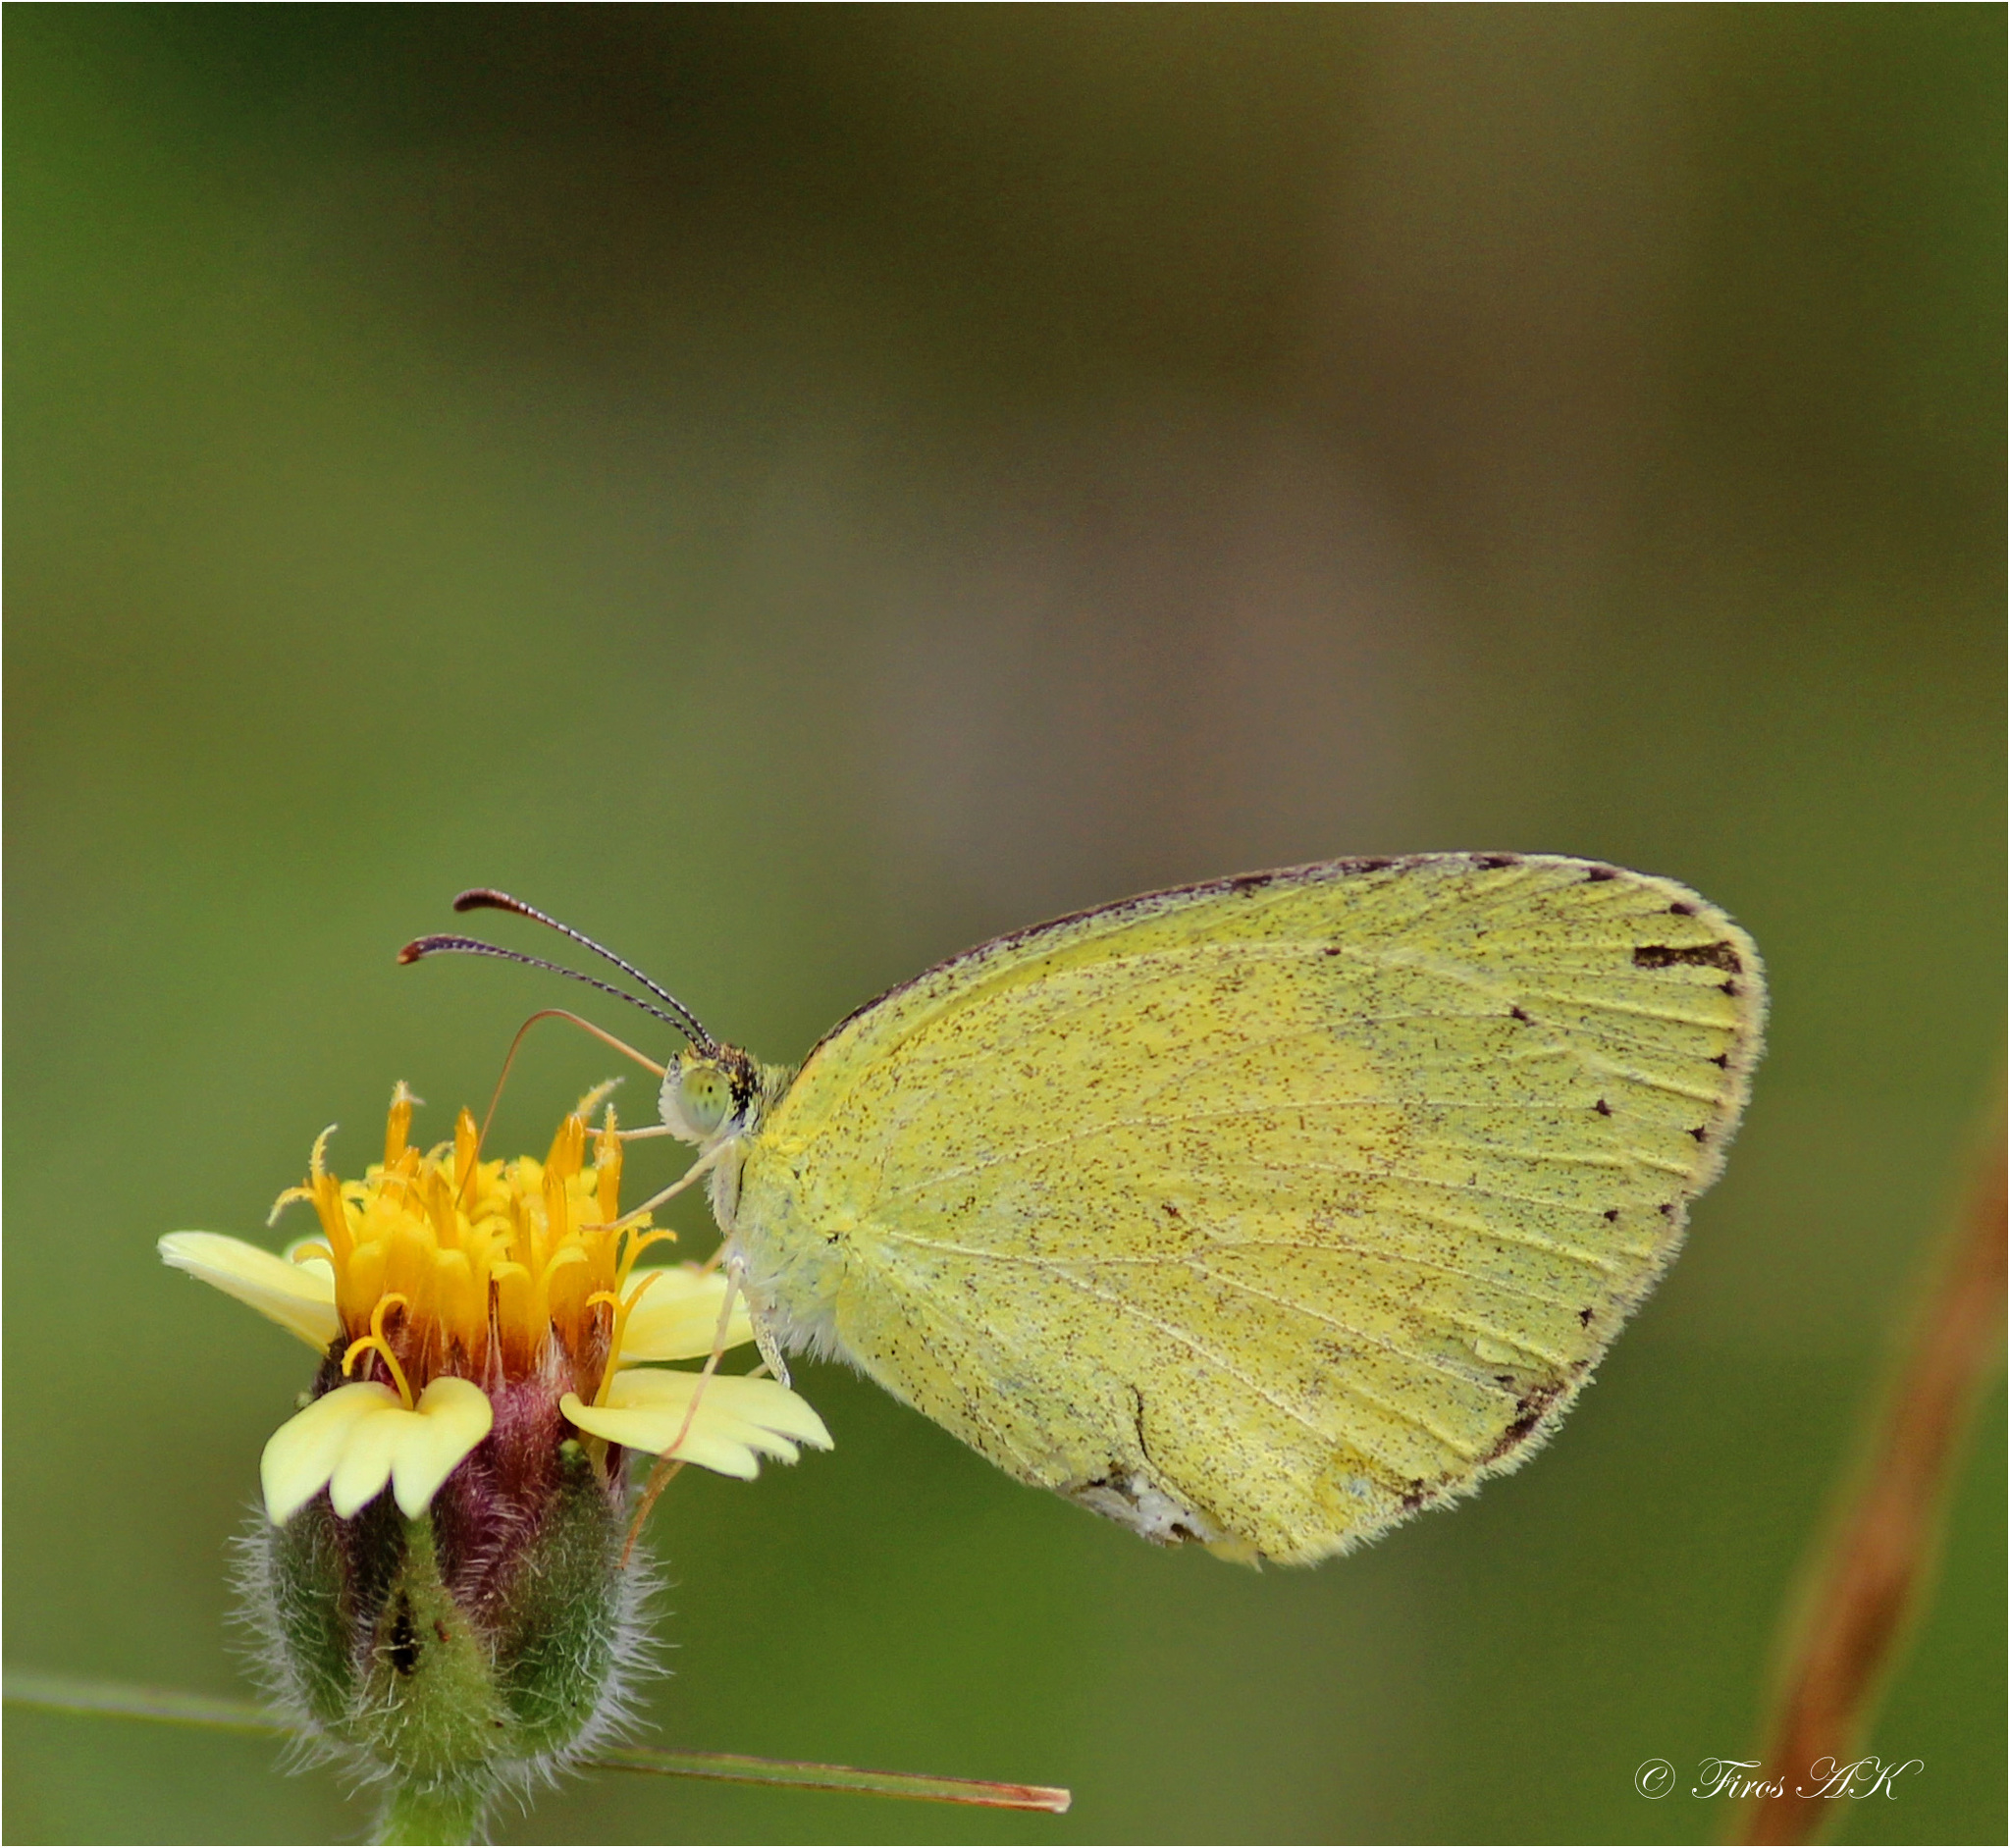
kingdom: Animalia
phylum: Arthropoda
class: Insecta
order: Lepidoptera
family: Pieridae
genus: Eurema
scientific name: Eurema brigitta
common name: Small grass yellow
